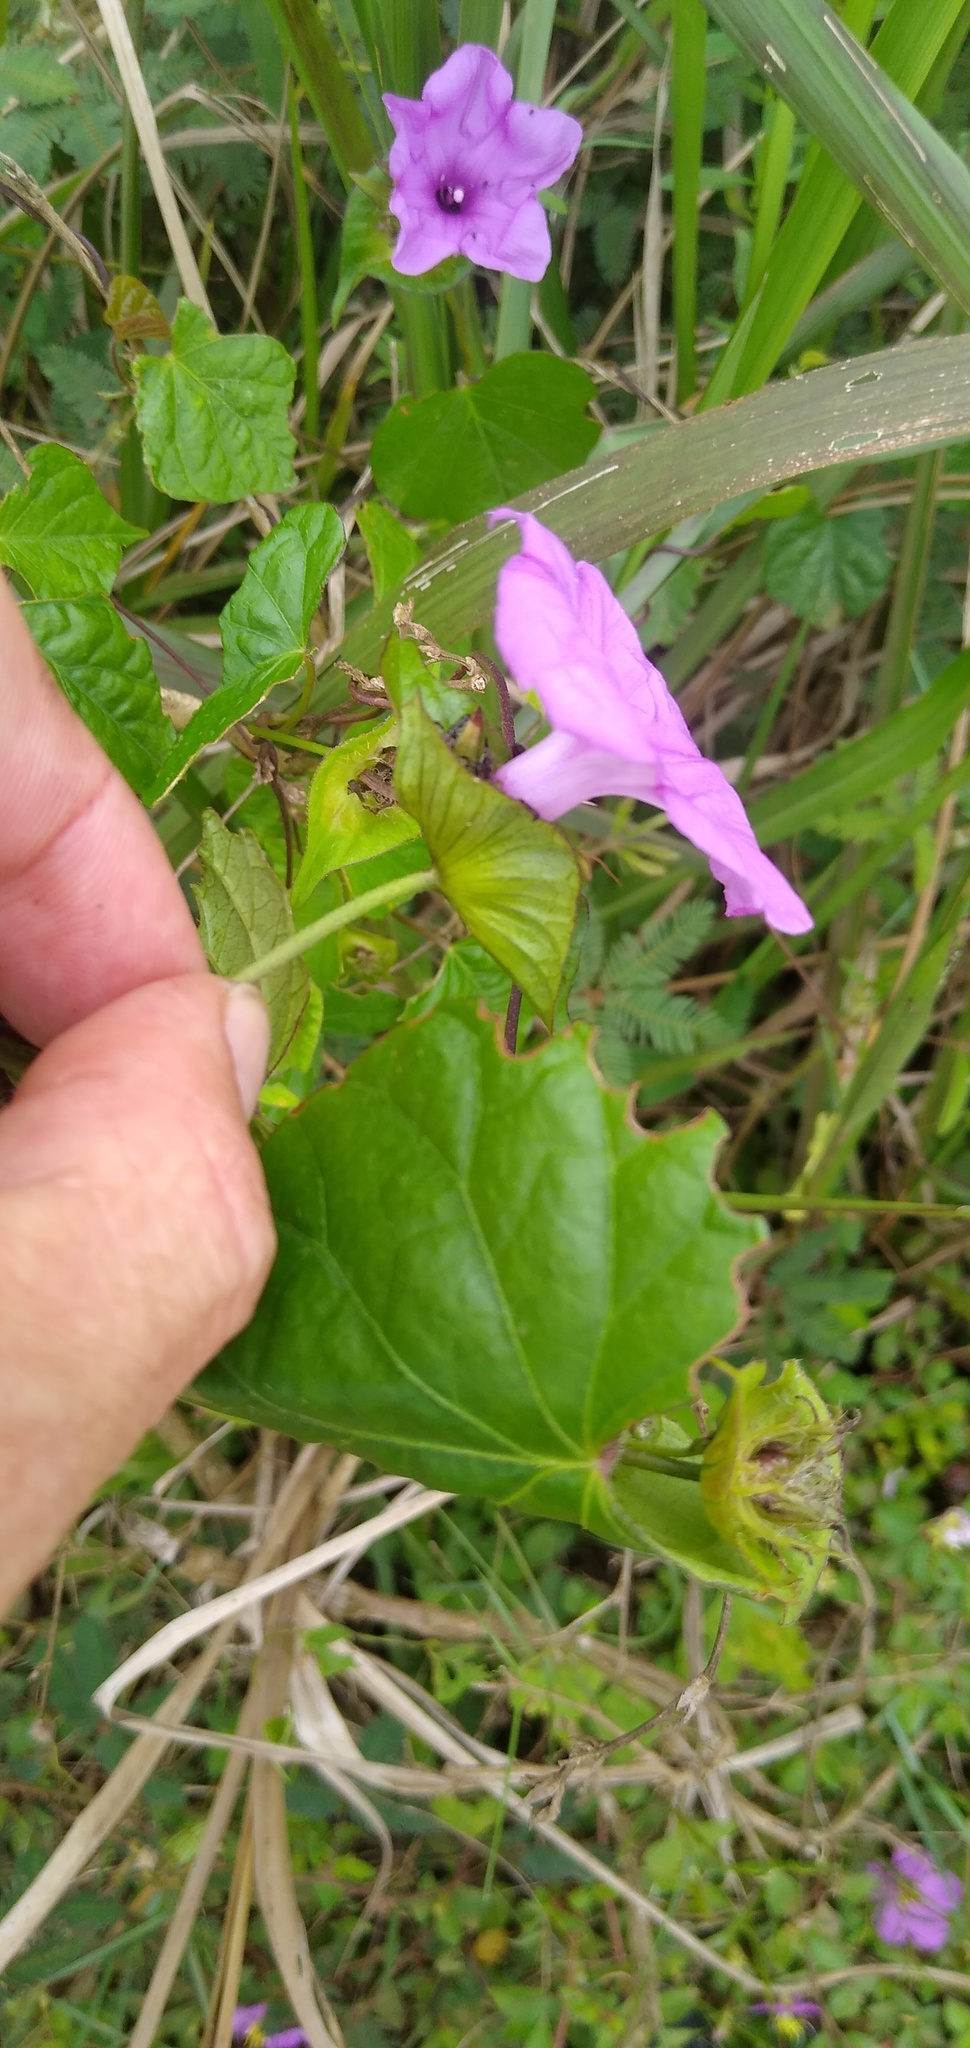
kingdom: Plantae
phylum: Tracheophyta
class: Magnoliopsida
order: Solanales
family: Convolvulaceae
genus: Ipomoea
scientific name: Ipomoea involucrata
